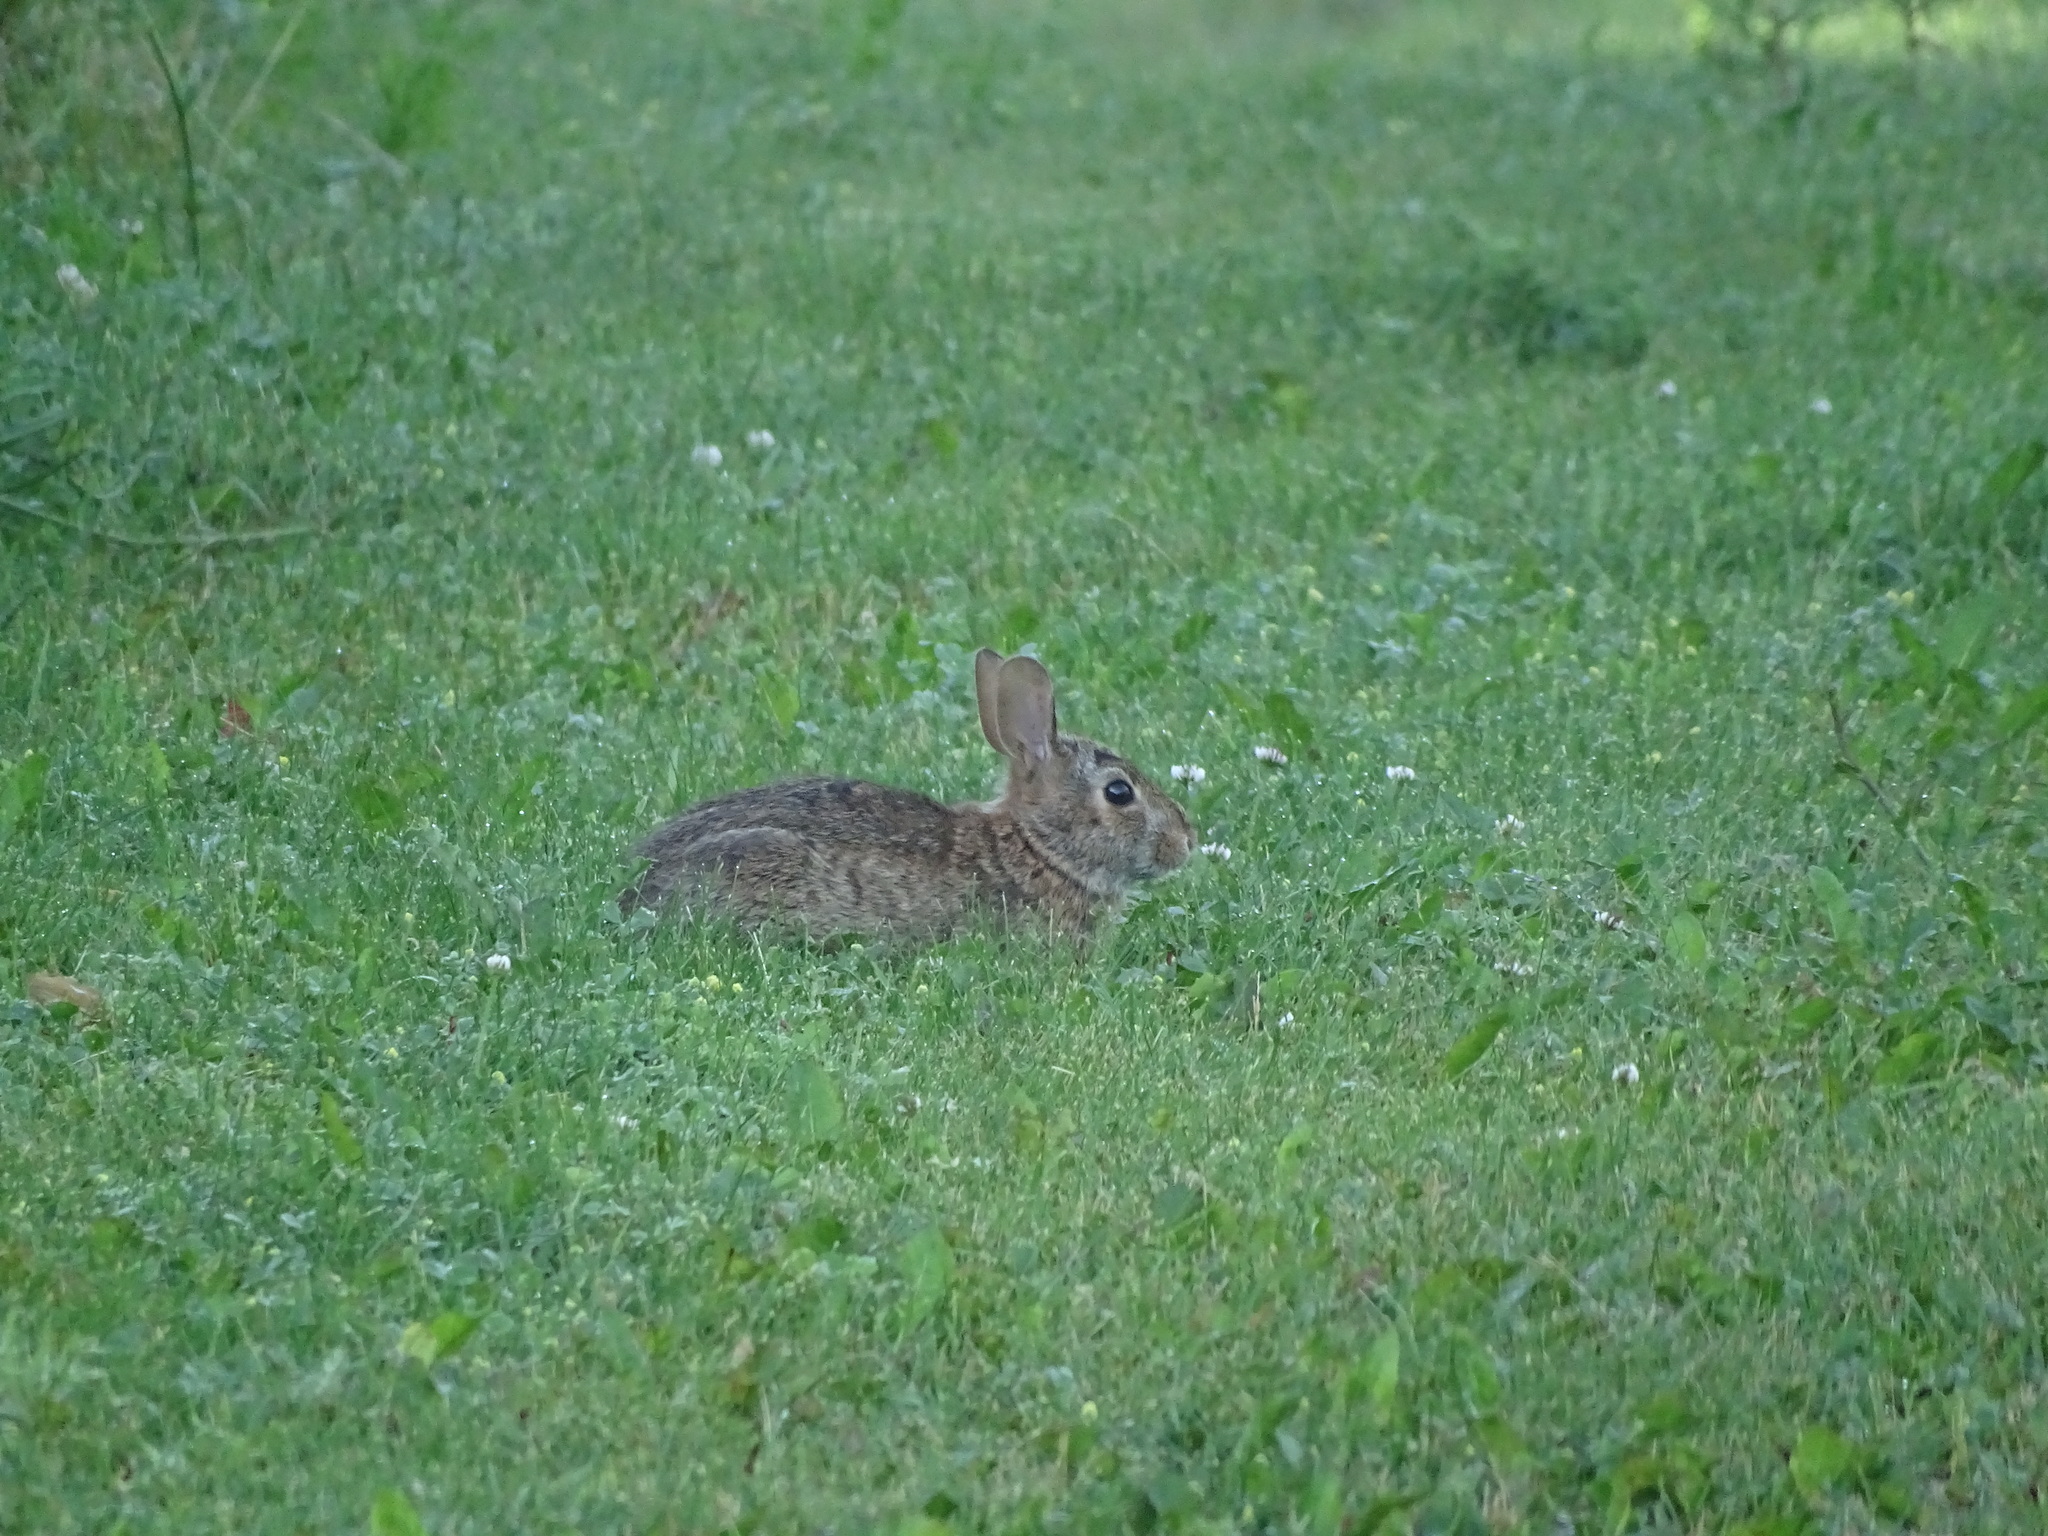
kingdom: Animalia
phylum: Chordata
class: Mammalia
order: Lagomorpha
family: Leporidae
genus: Sylvilagus
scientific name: Sylvilagus floridanus
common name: Eastern cottontail
